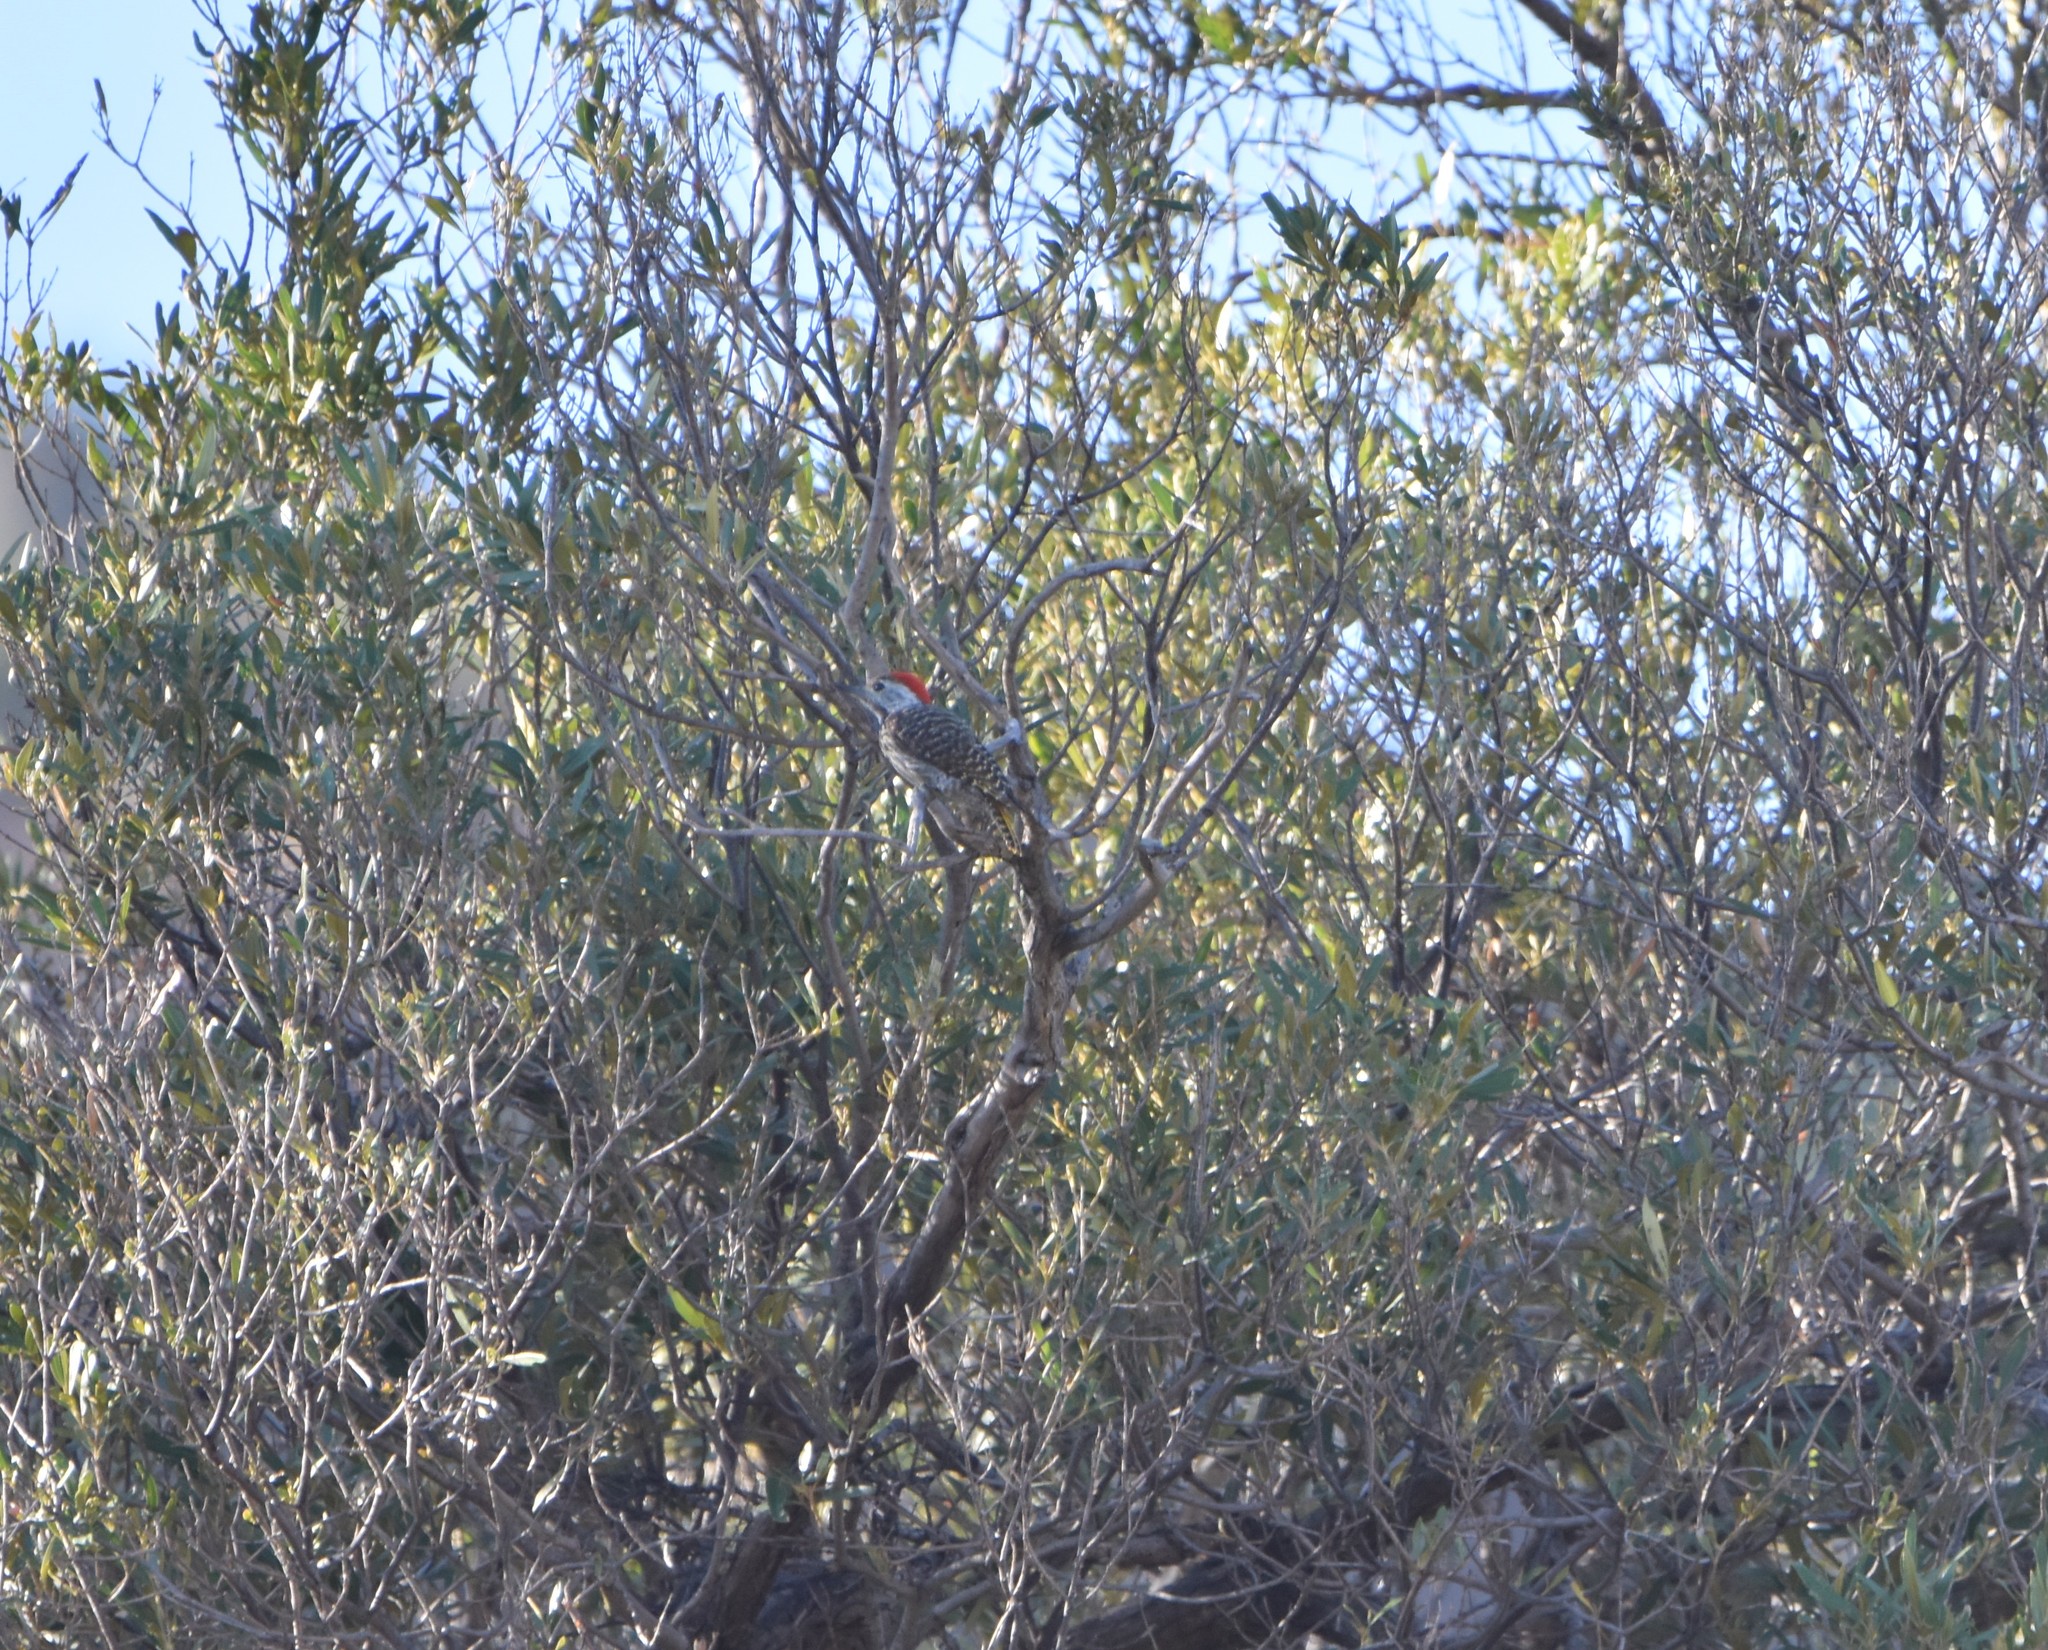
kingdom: Animalia
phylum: Chordata
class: Aves
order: Piciformes
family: Picidae
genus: Dendropicos
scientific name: Dendropicos fuscescens
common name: Cardinal woodpecker
